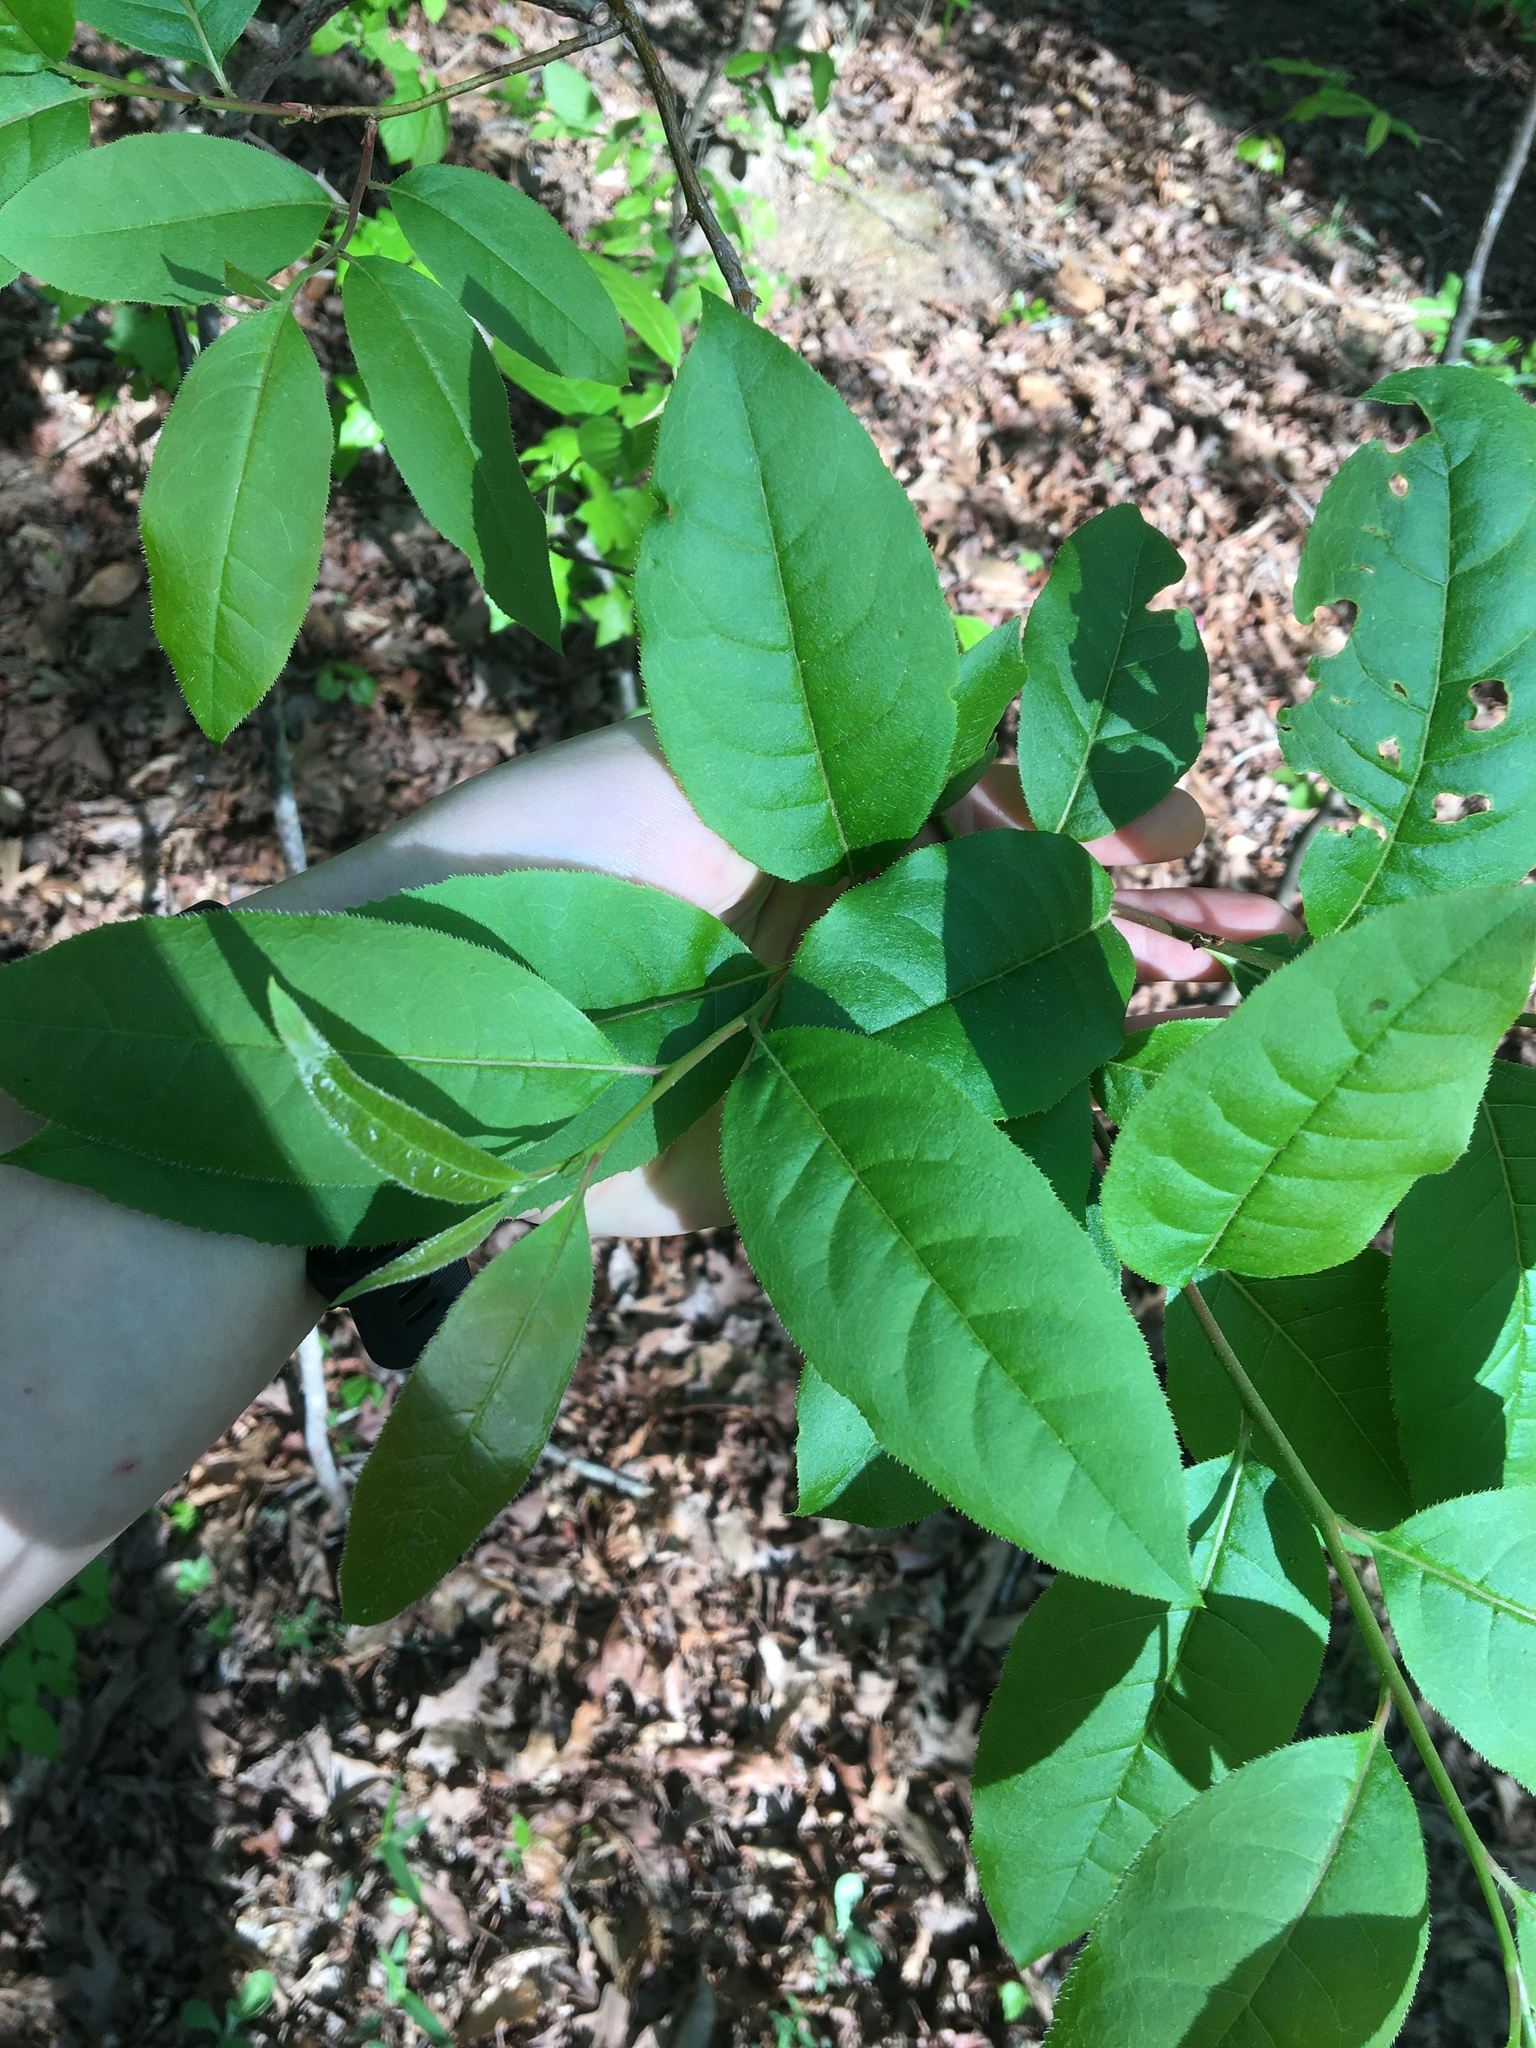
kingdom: Plantae
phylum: Tracheophyta
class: Magnoliopsida
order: Ericales
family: Ericaceae
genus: Oxydendrum
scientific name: Oxydendrum arboreum
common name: Sourwood
